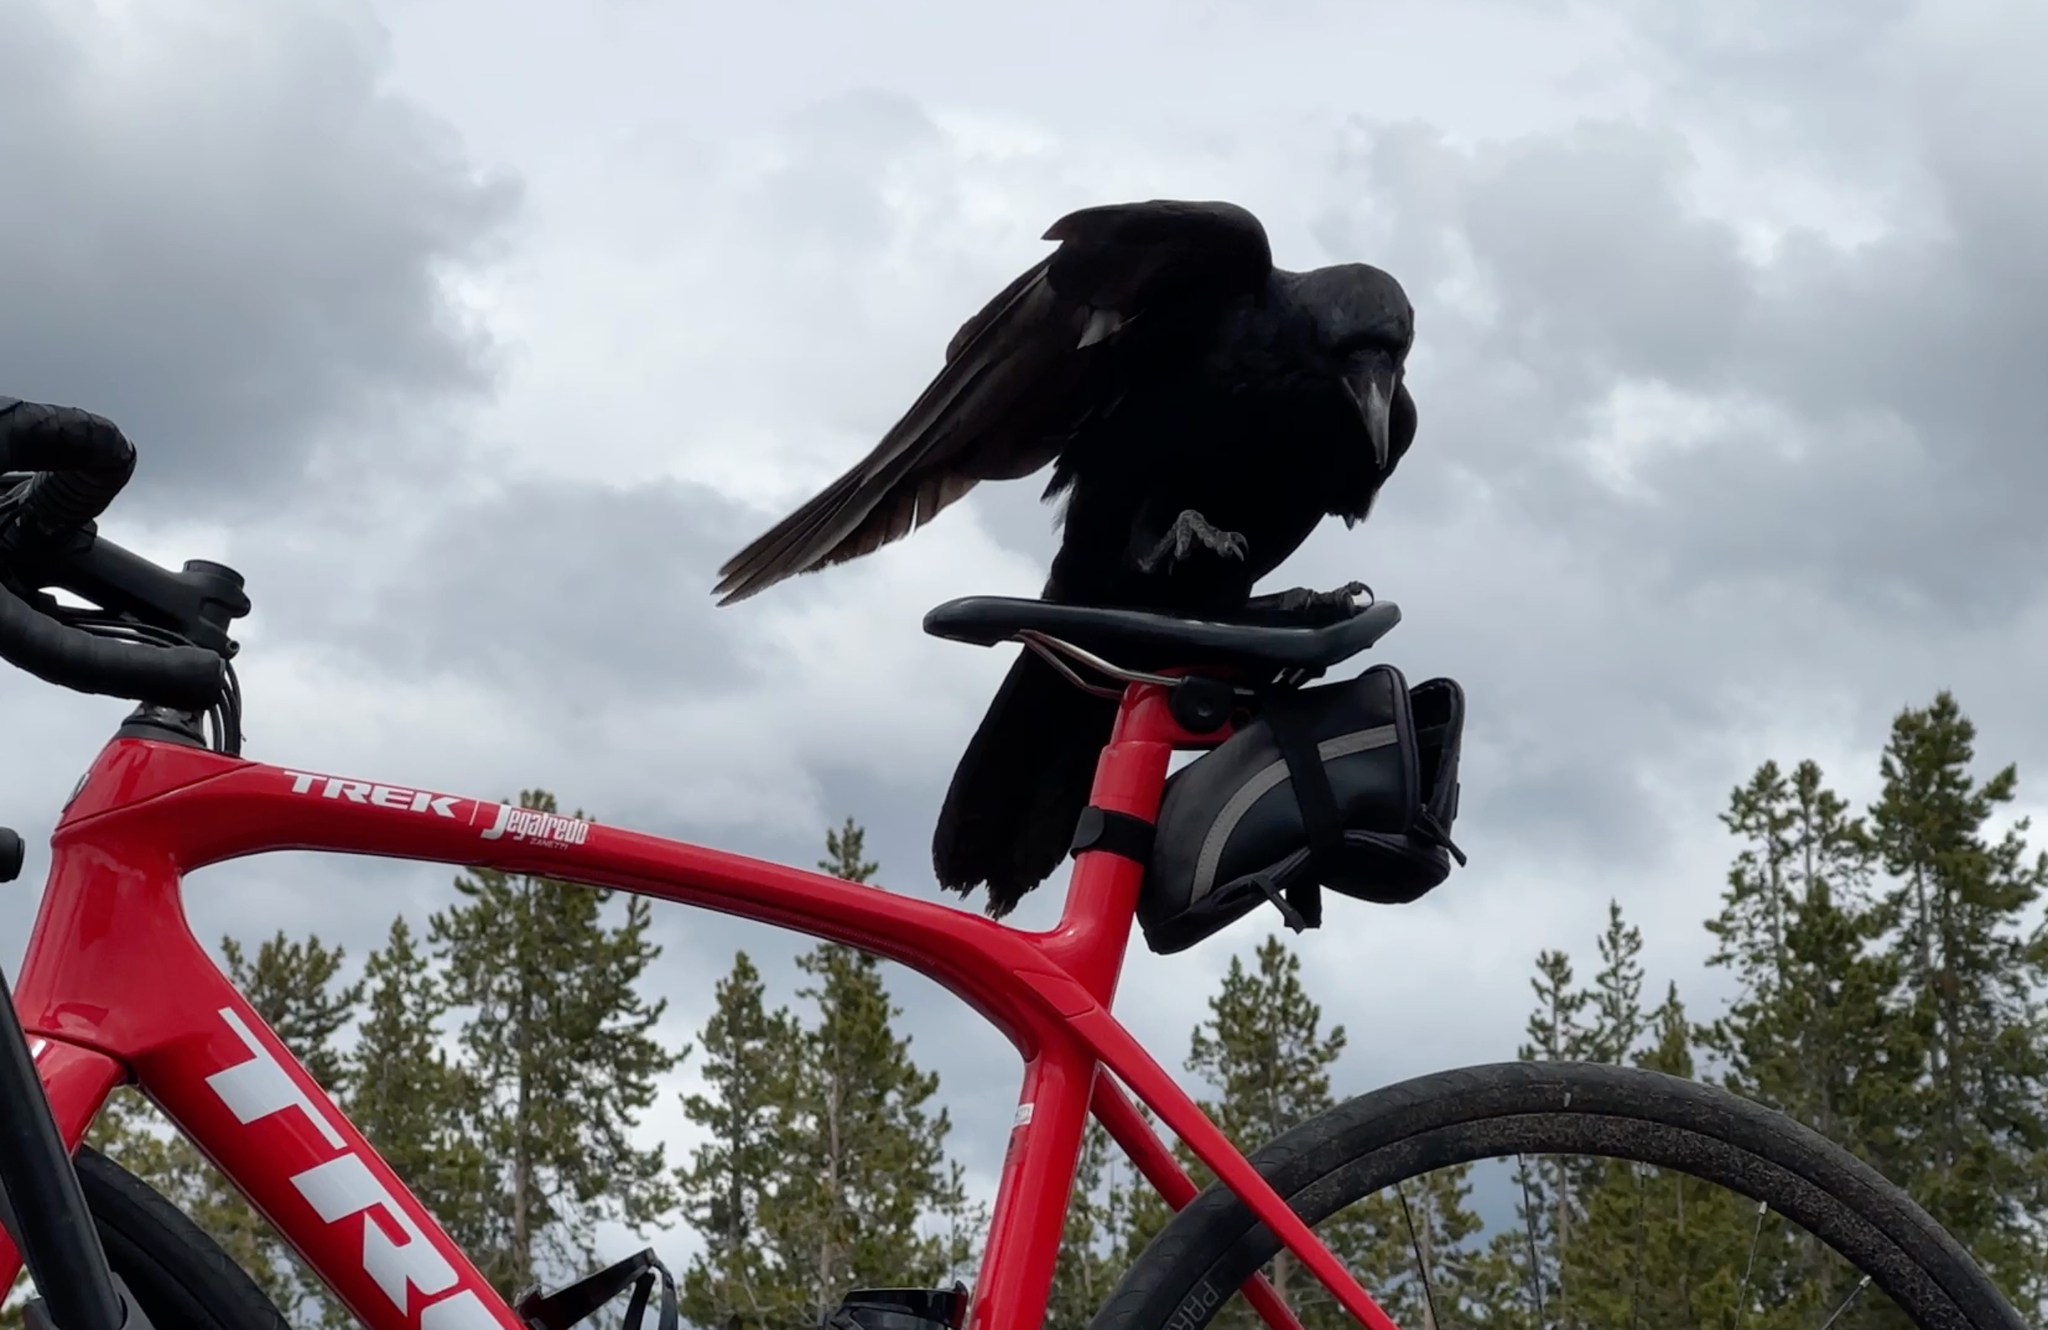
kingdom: Animalia
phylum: Chordata
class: Aves
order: Passeriformes
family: Corvidae
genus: Corvus
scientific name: Corvus corax
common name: Common raven
